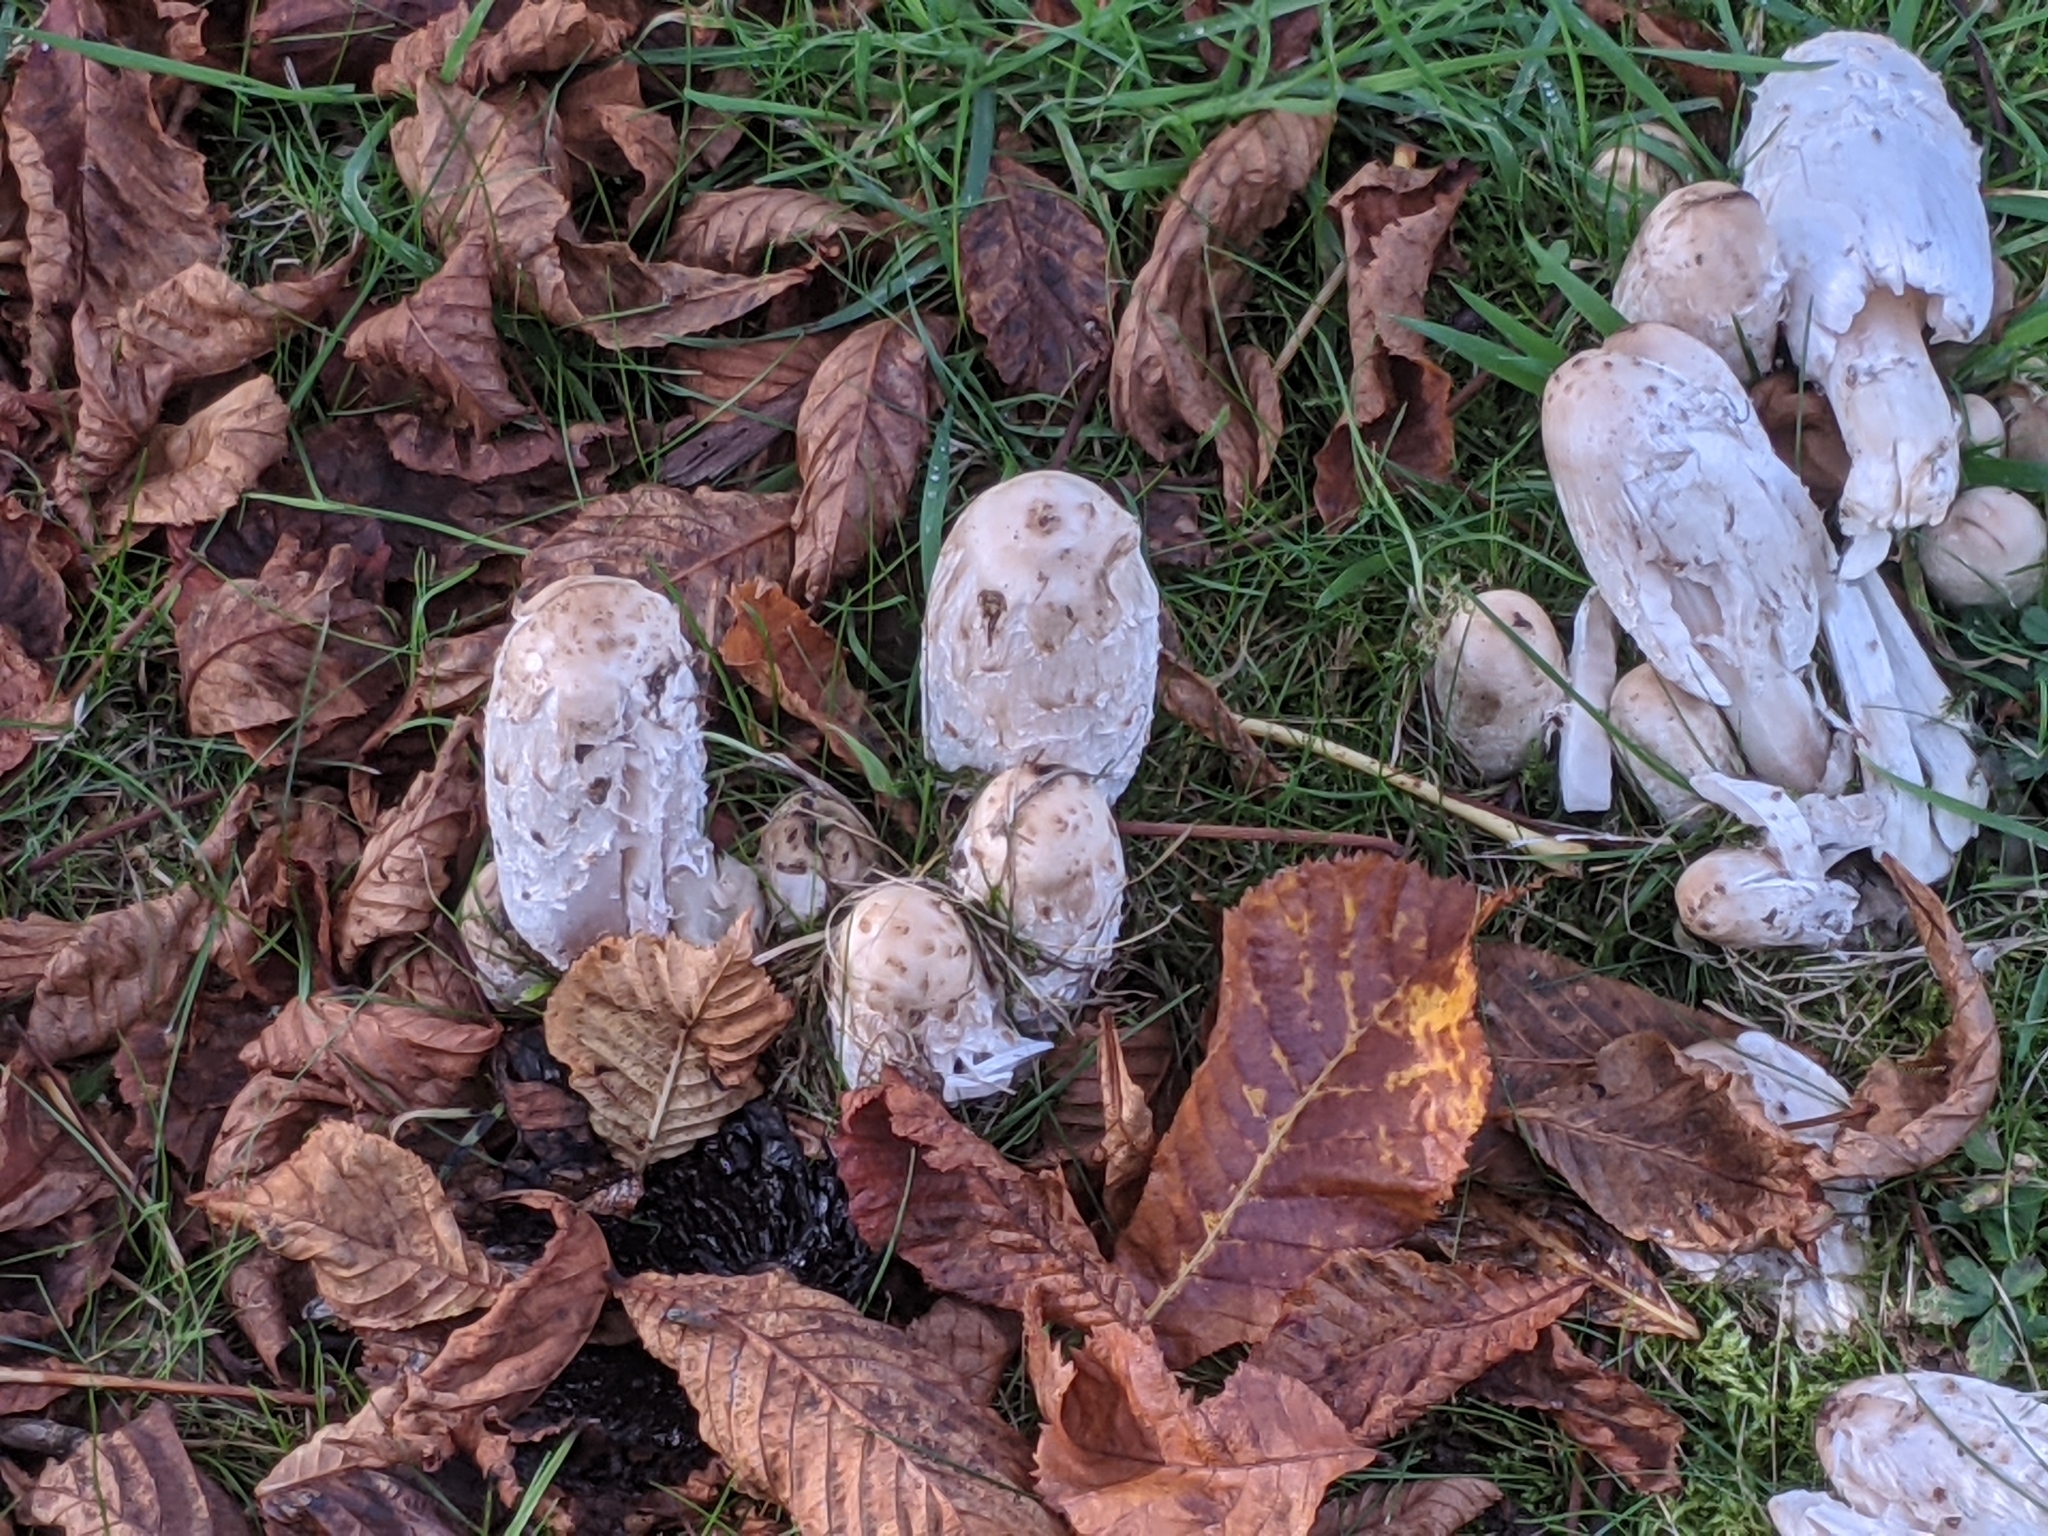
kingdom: Fungi
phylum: Basidiomycota
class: Agaricomycetes
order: Agaricales
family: Agaricaceae
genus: Coprinus
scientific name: Coprinus comatus
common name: Lawyer's wig
